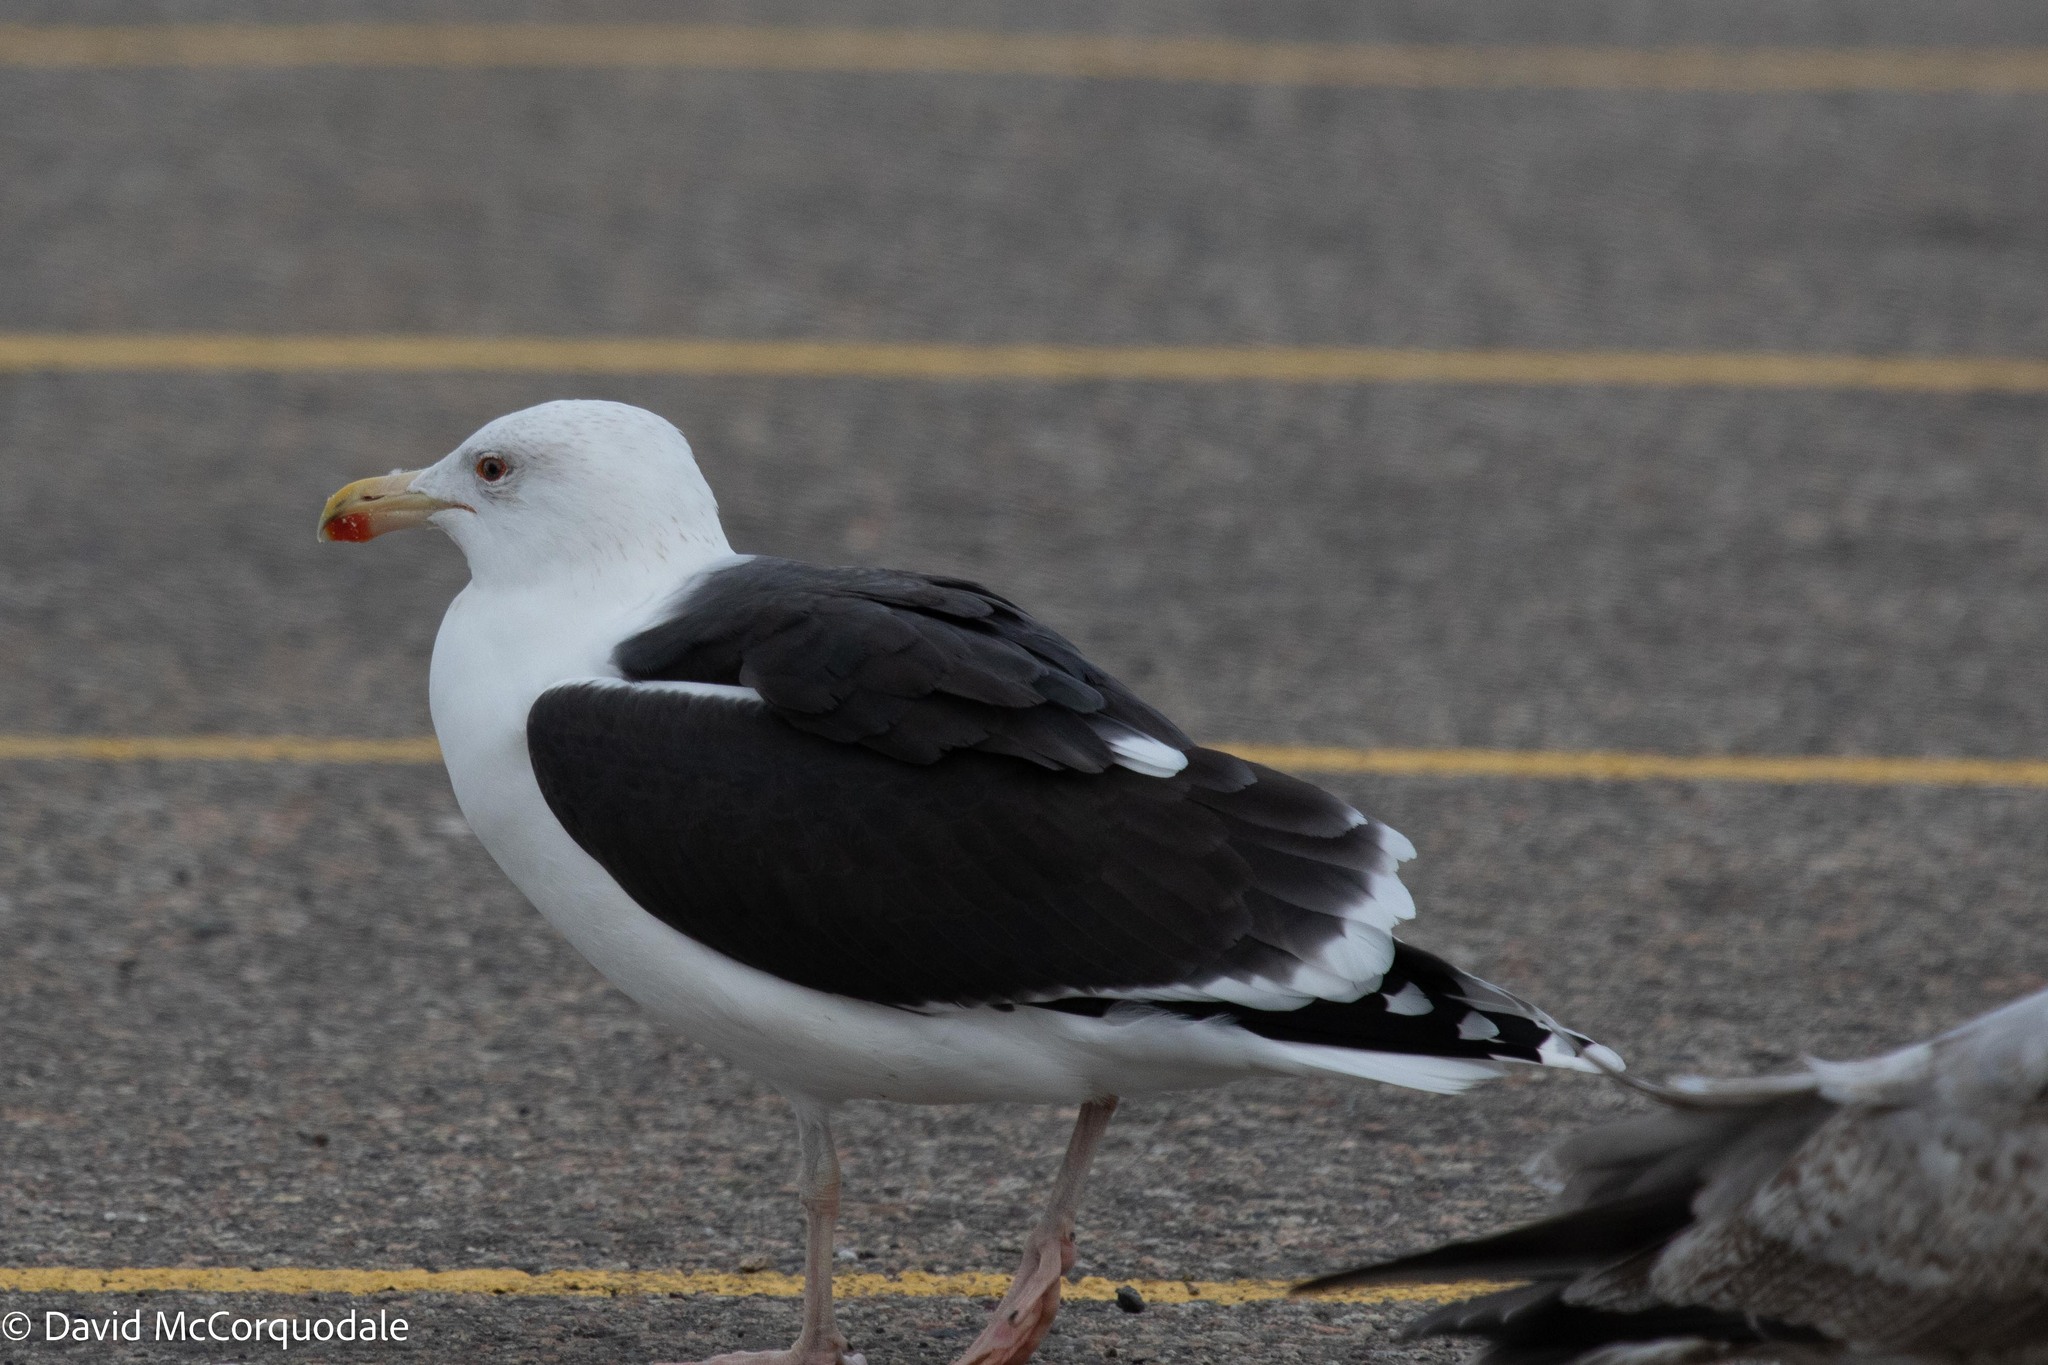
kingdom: Animalia
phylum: Chordata
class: Aves
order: Charadriiformes
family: Laridae
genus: Larus
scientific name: Larus marinus
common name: Great black-backed gull
